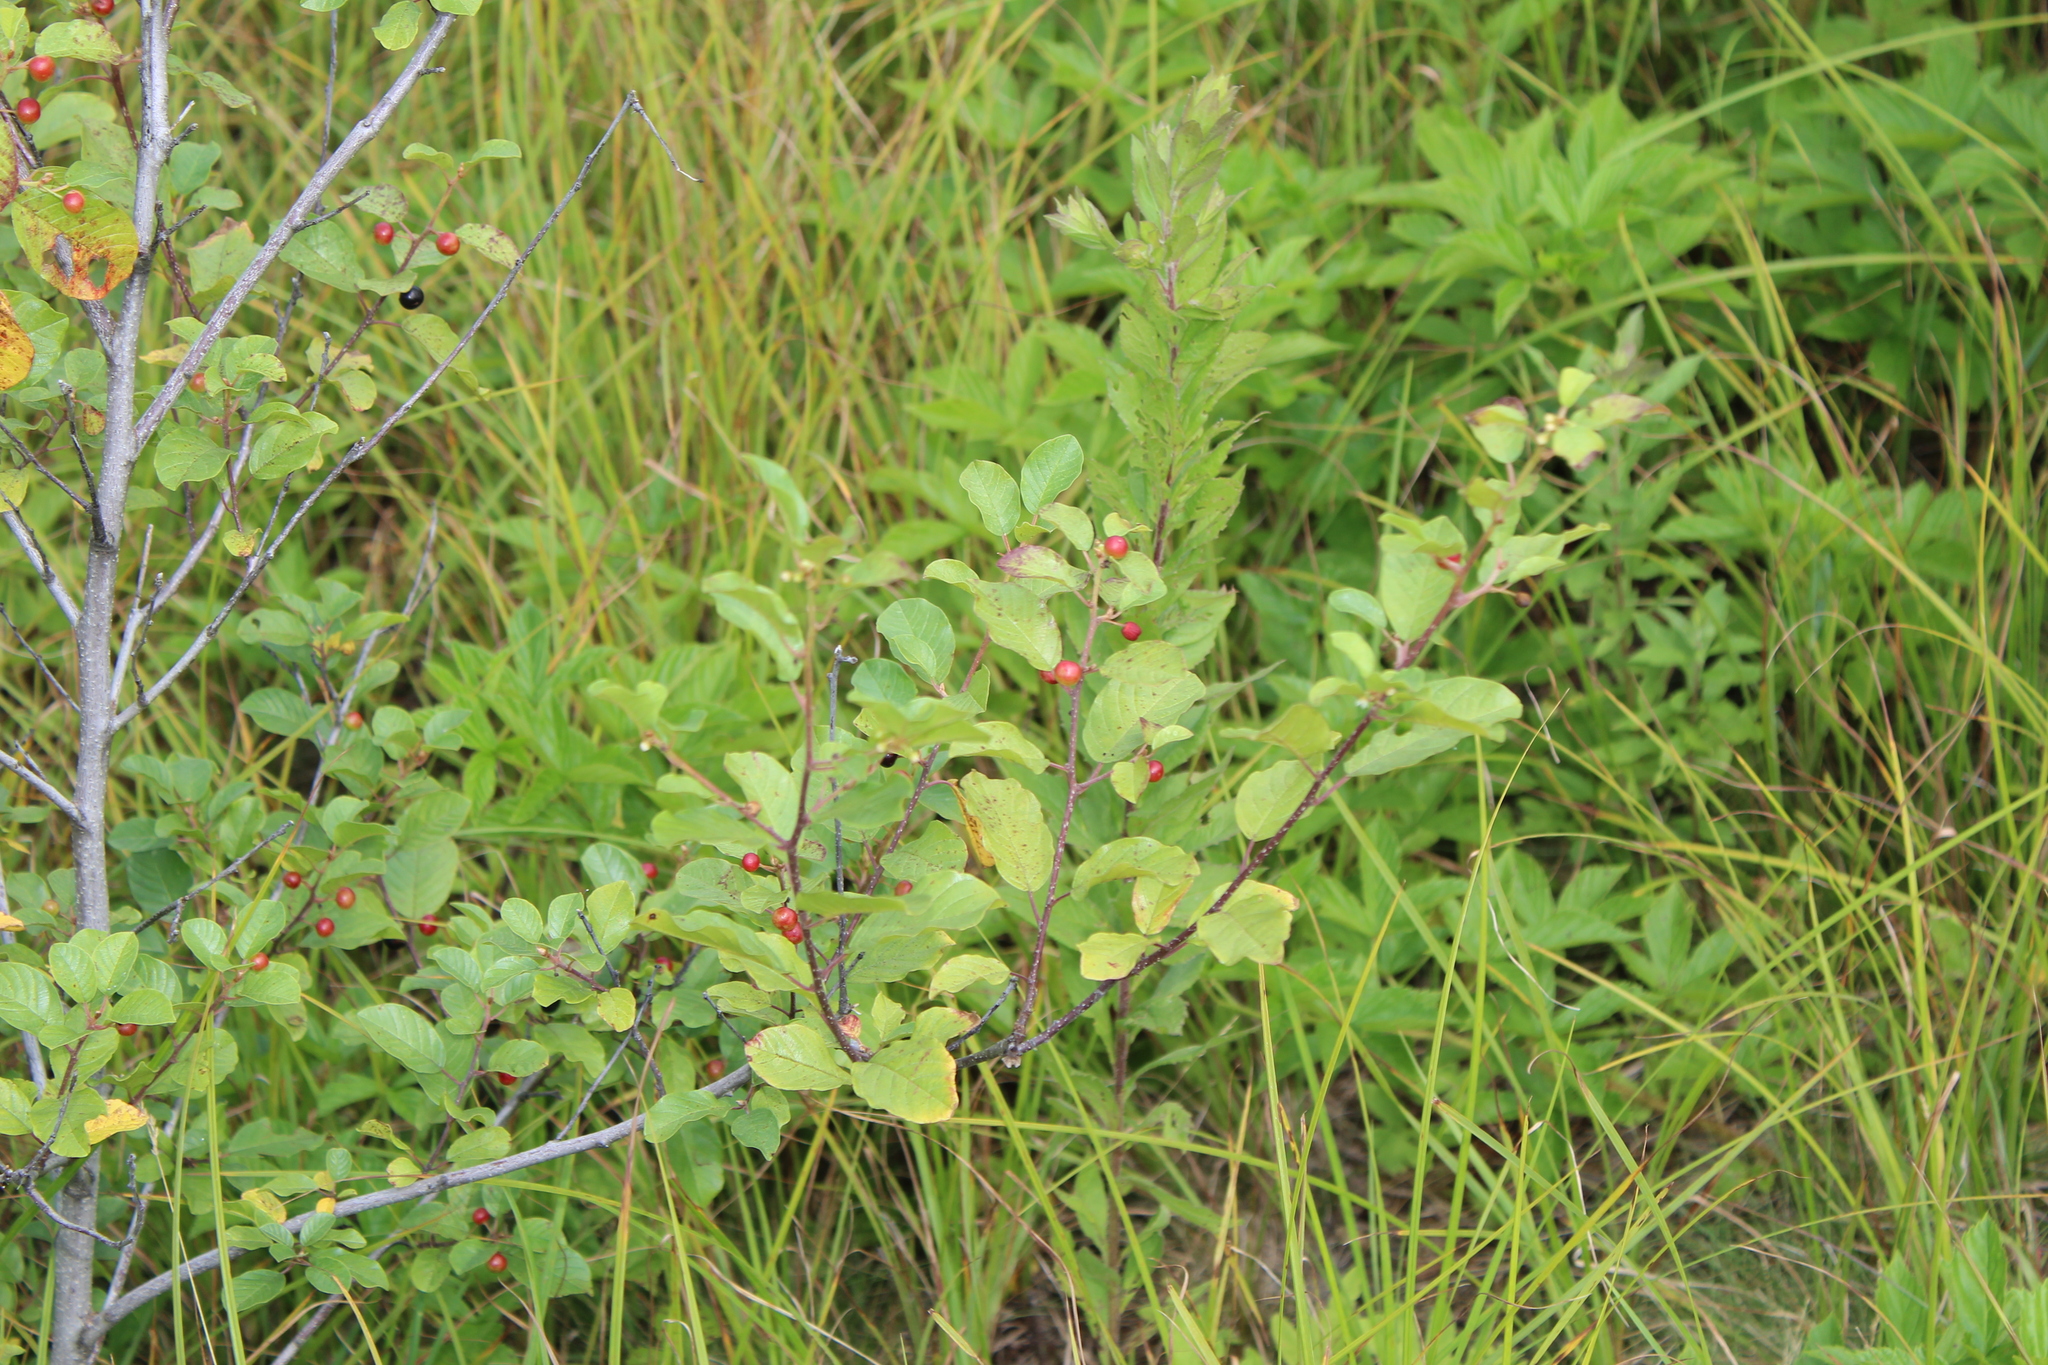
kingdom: Plantae
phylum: Tracheophyta
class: Magnoliopsida
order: Rosales
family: Rhamnaceae
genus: Frangula
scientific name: Frangula alnus
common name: Alder buckthorn
